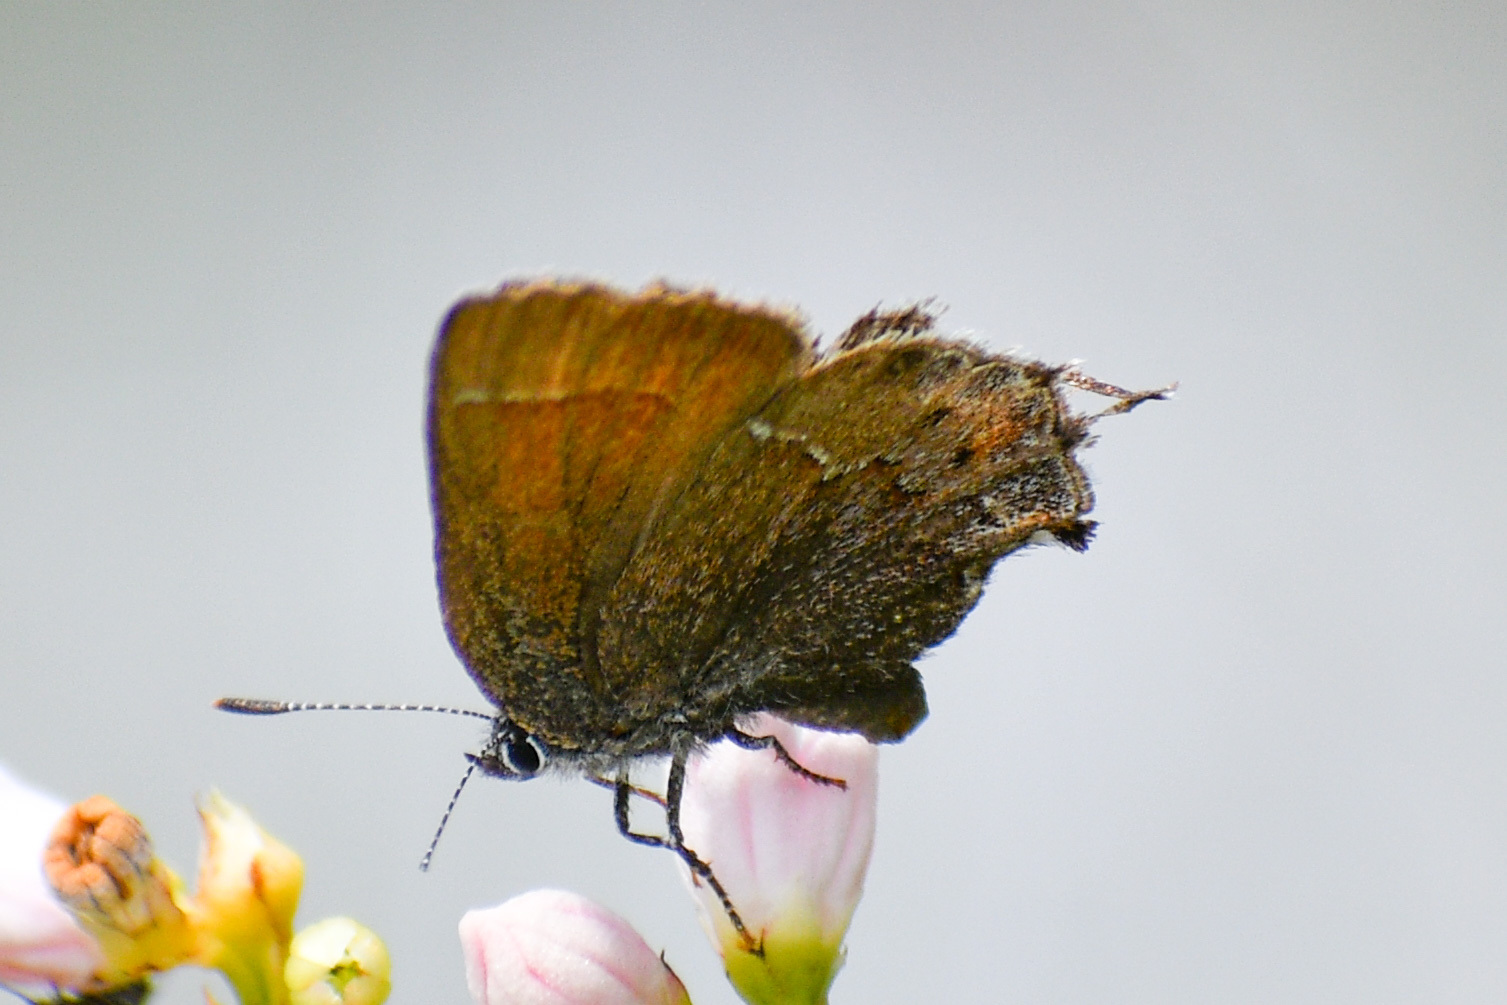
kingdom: Animalia
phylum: Arthropoda
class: Insecta
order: Lepidoptera
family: Lycaenidae
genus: Mitoura
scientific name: Mitoura gryneus
